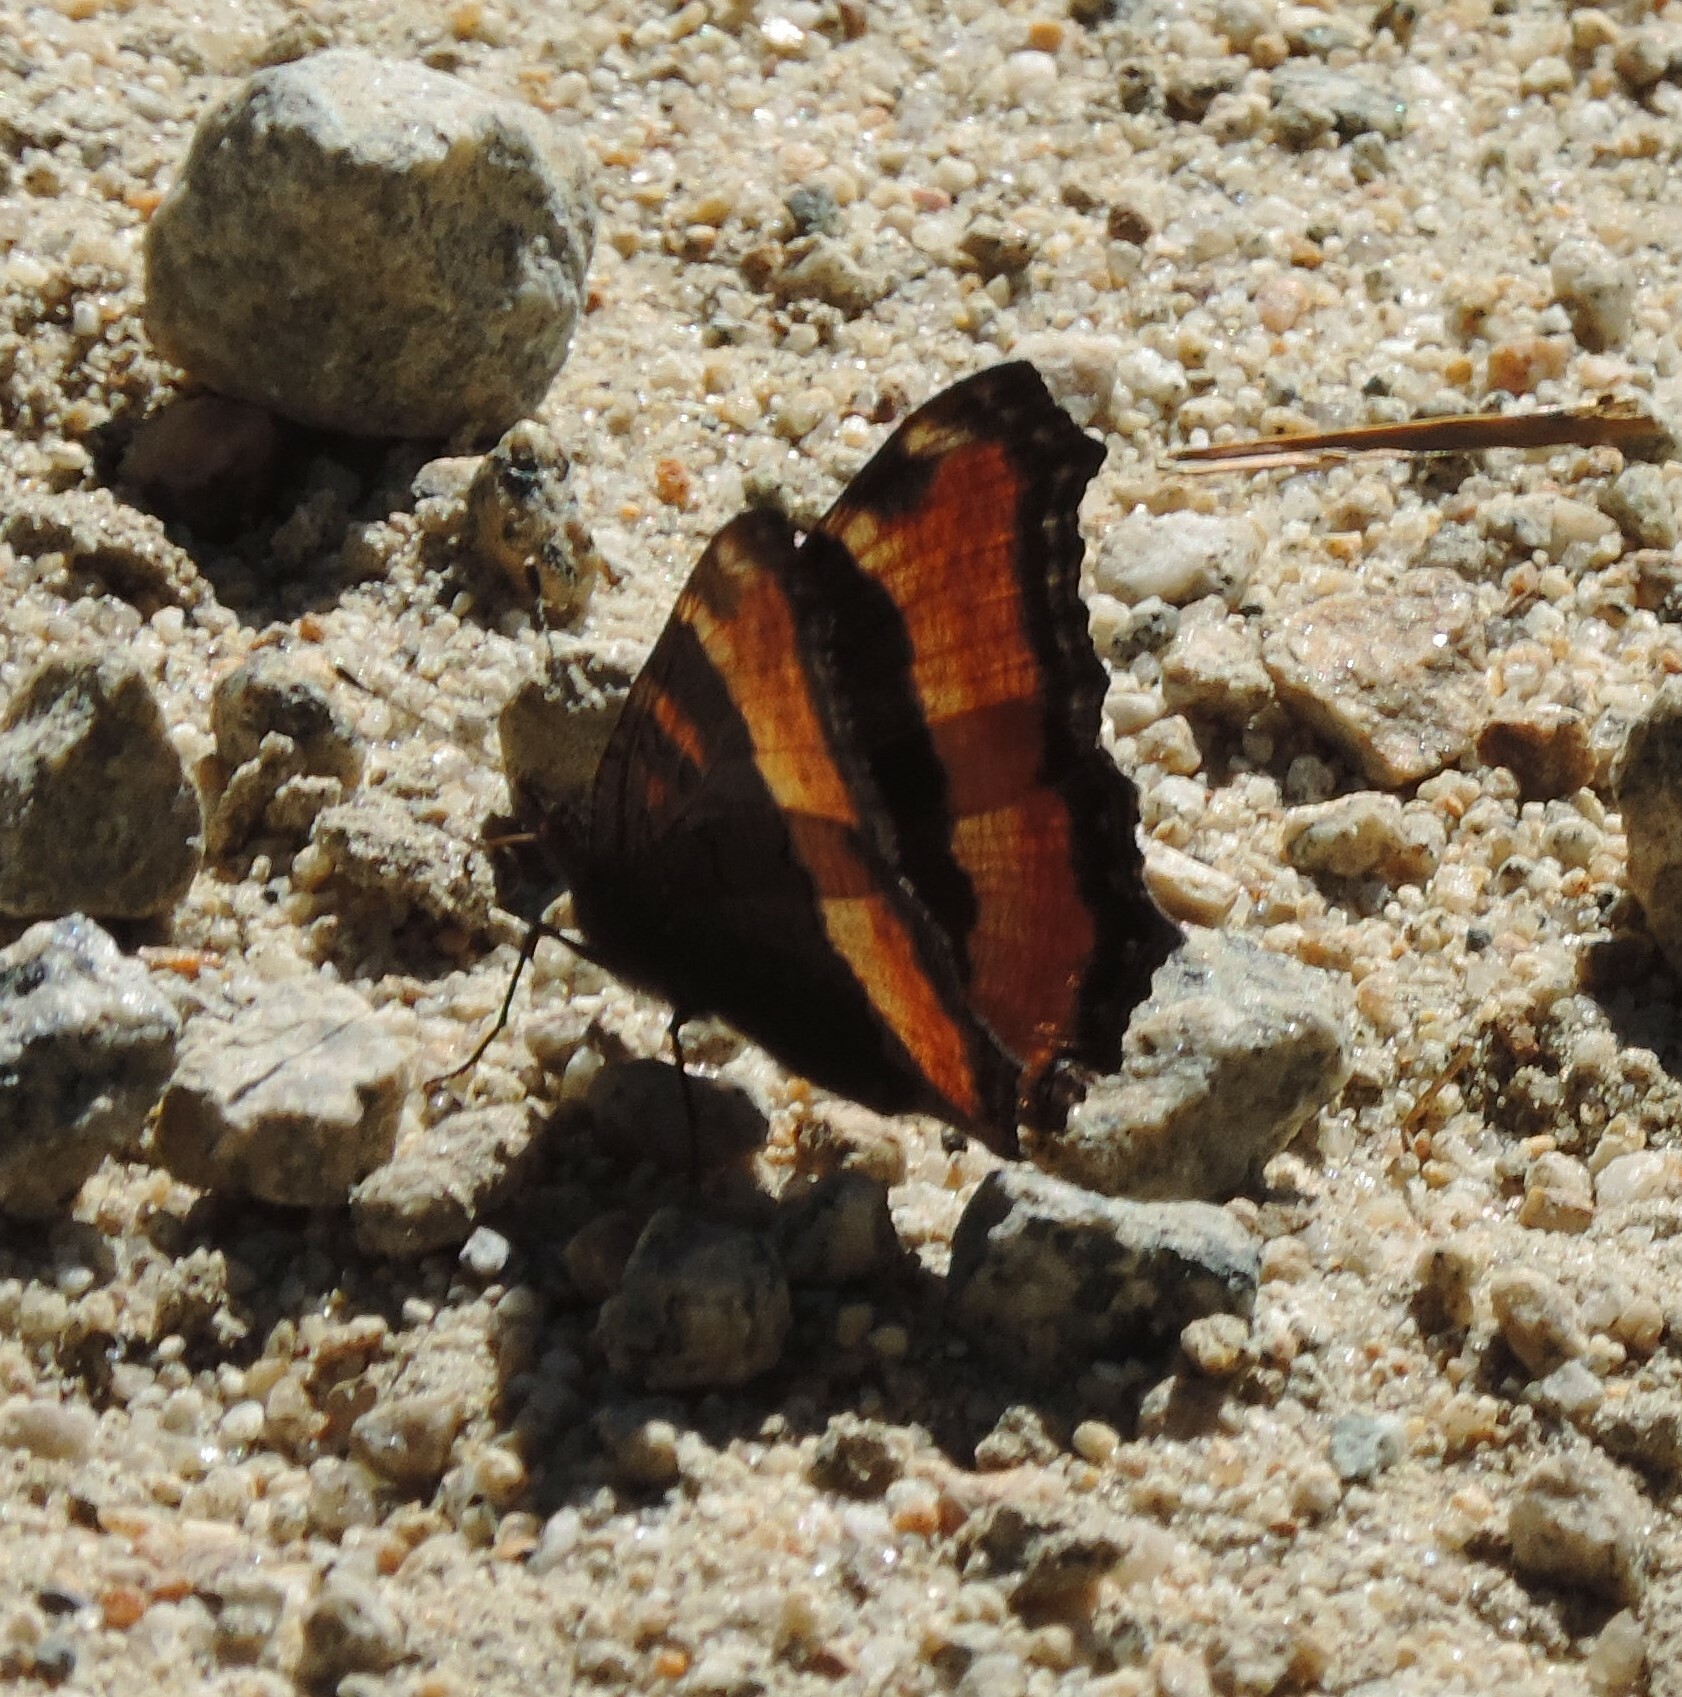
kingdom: Animalia
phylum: Arthropoda
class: Insecta
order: Lepidoptera
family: Nymphalidae
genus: Aglais
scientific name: Aglais milberti
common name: Milbert's tortoiseshell
